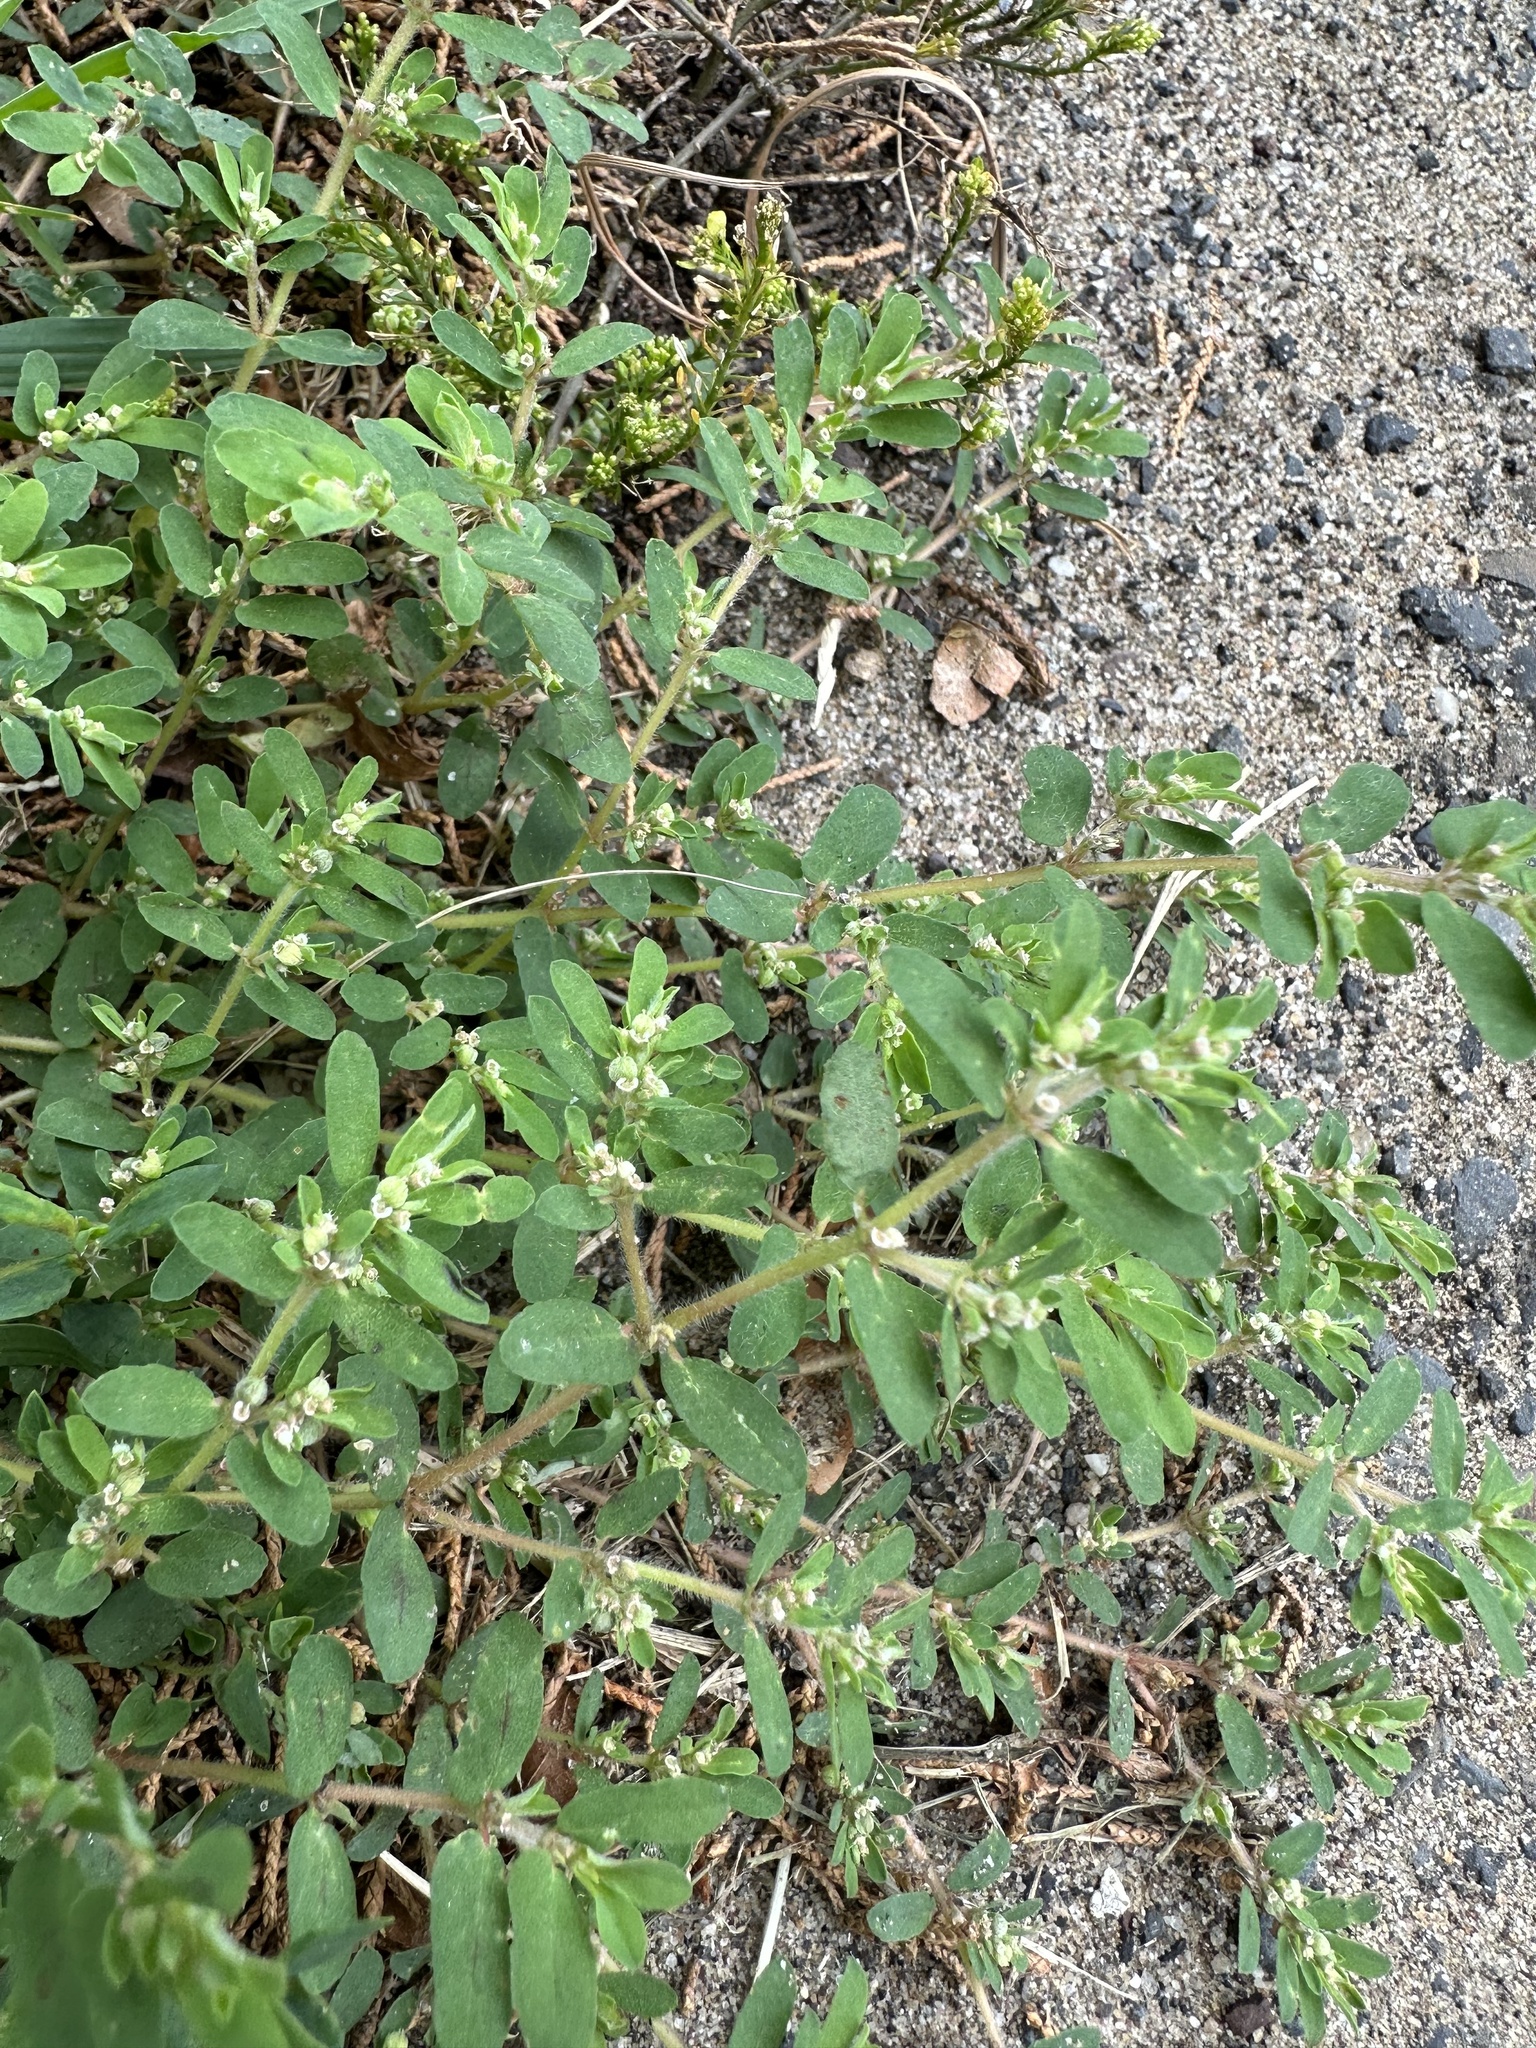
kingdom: Plantae
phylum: Tracheophyta
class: Magnoliopsida
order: Malpighiales
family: Euphorbiaceae
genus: Euphorbia
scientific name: Euphorbia maculata
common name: Spotted spurge
